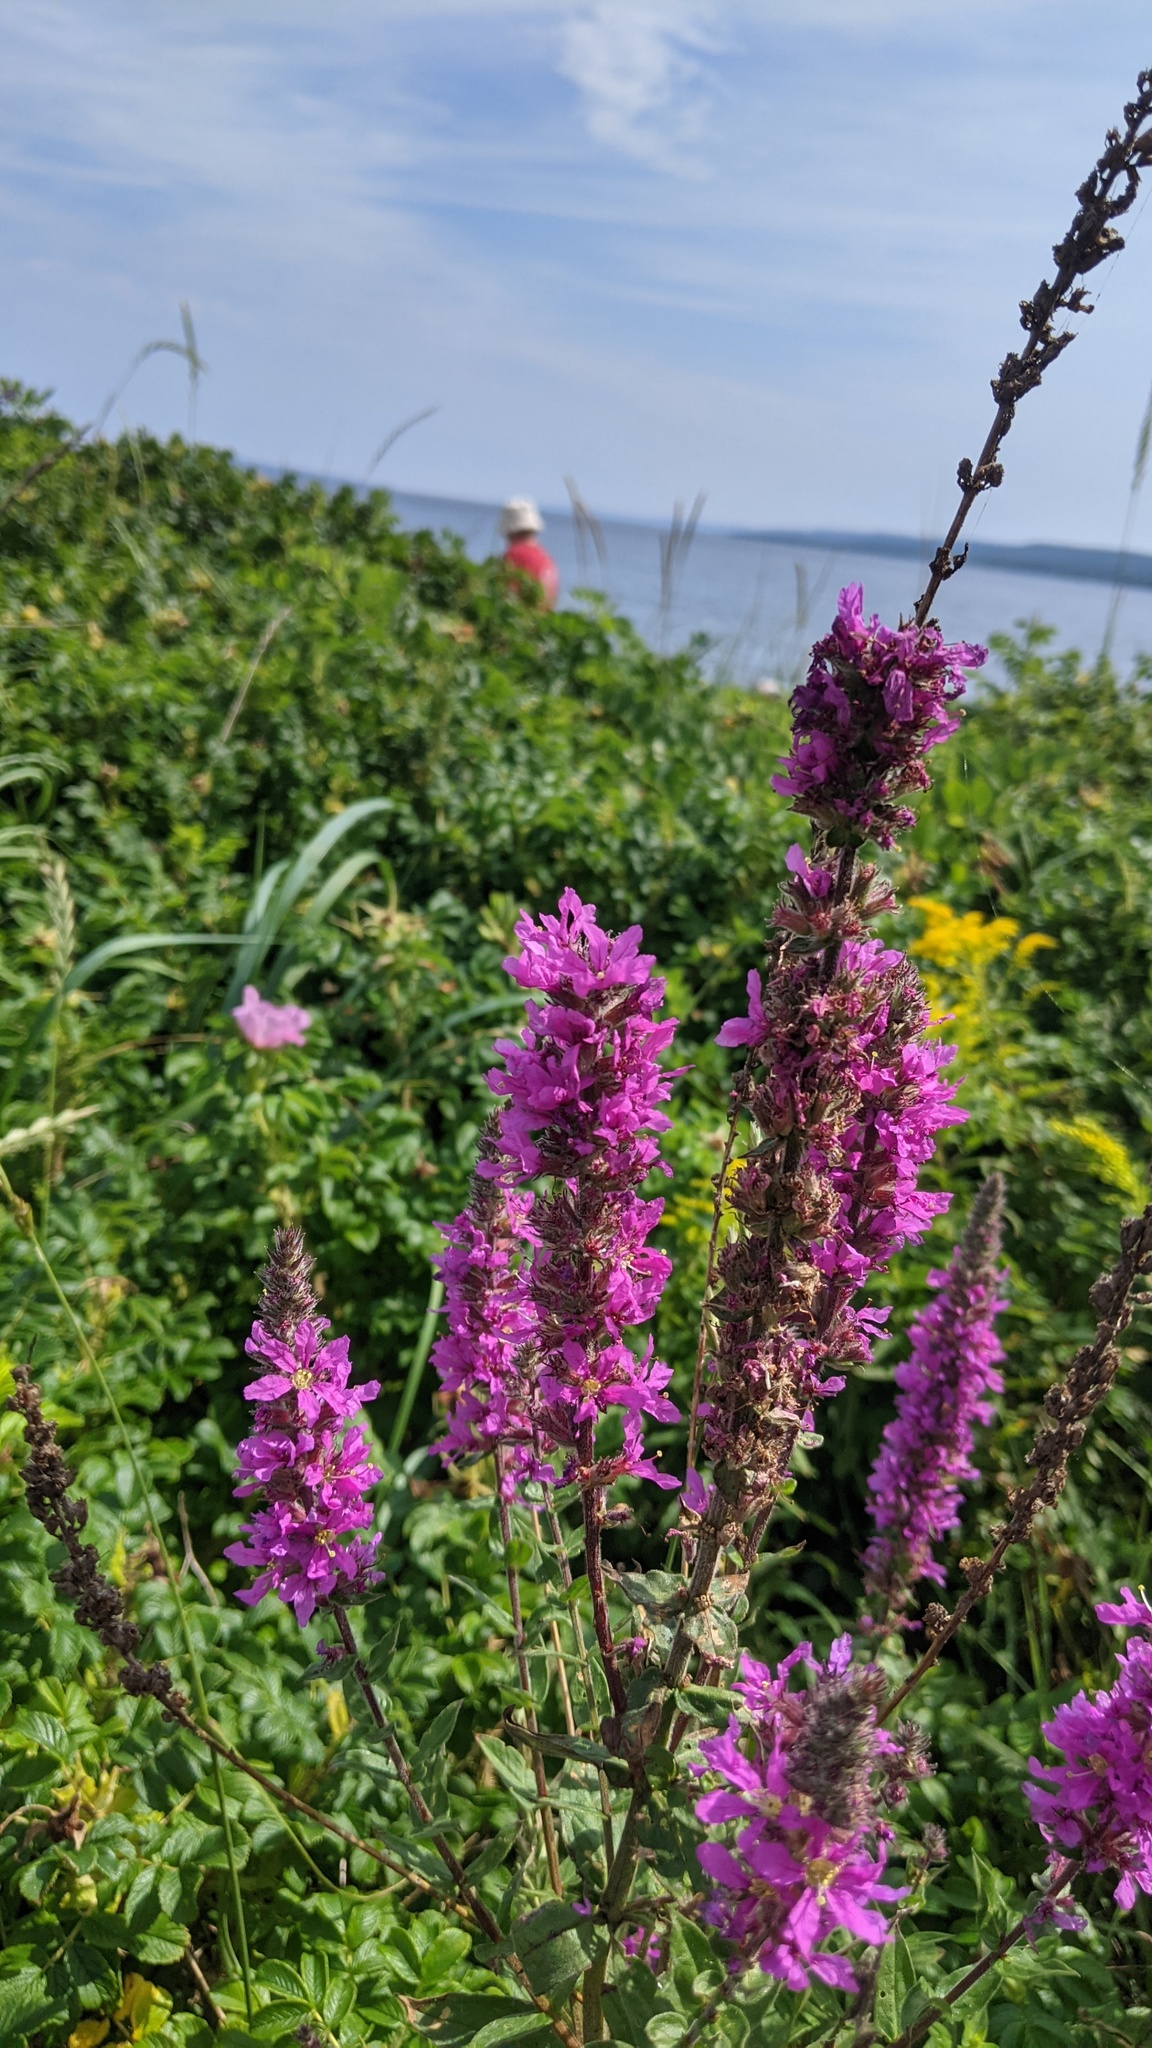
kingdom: Plantae
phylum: Tracheophyta
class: Magnoliopsida
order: Myrtales
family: Lythraceae
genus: Lythrum
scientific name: Lythrum salicaria
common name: Purple loosestrife
